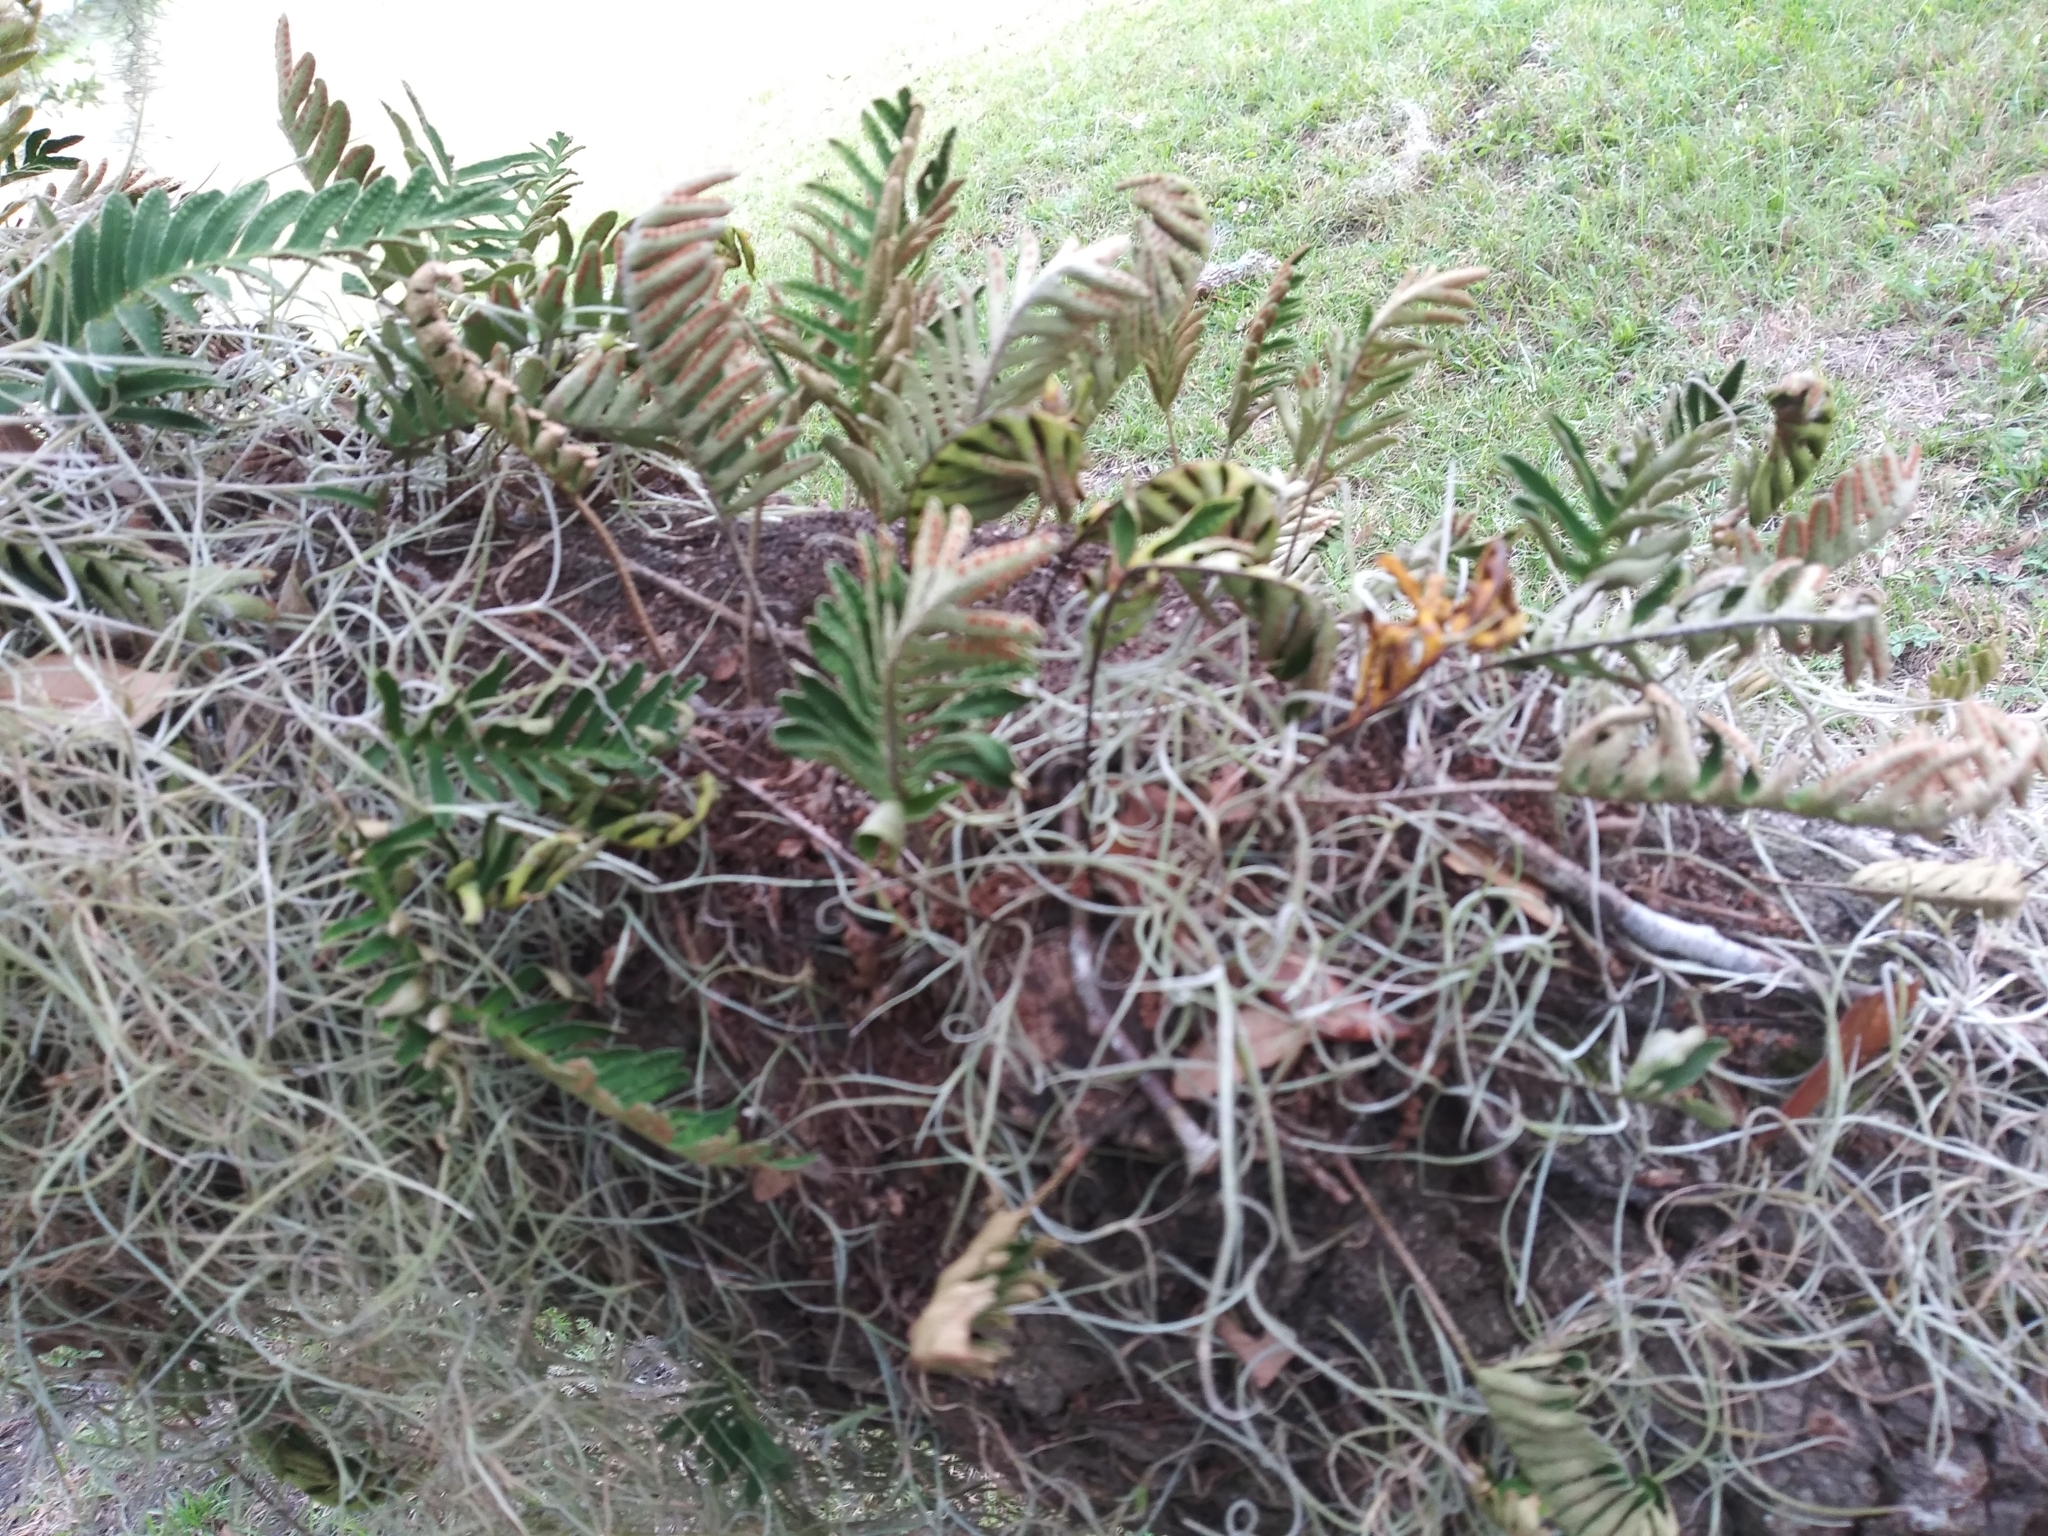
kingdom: Plantae
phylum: Tracheophyta
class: Polypodiopsida
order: Polypodiales
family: Polypodiaceae
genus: Pleopeltis
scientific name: Pleopeltis michauxiana
